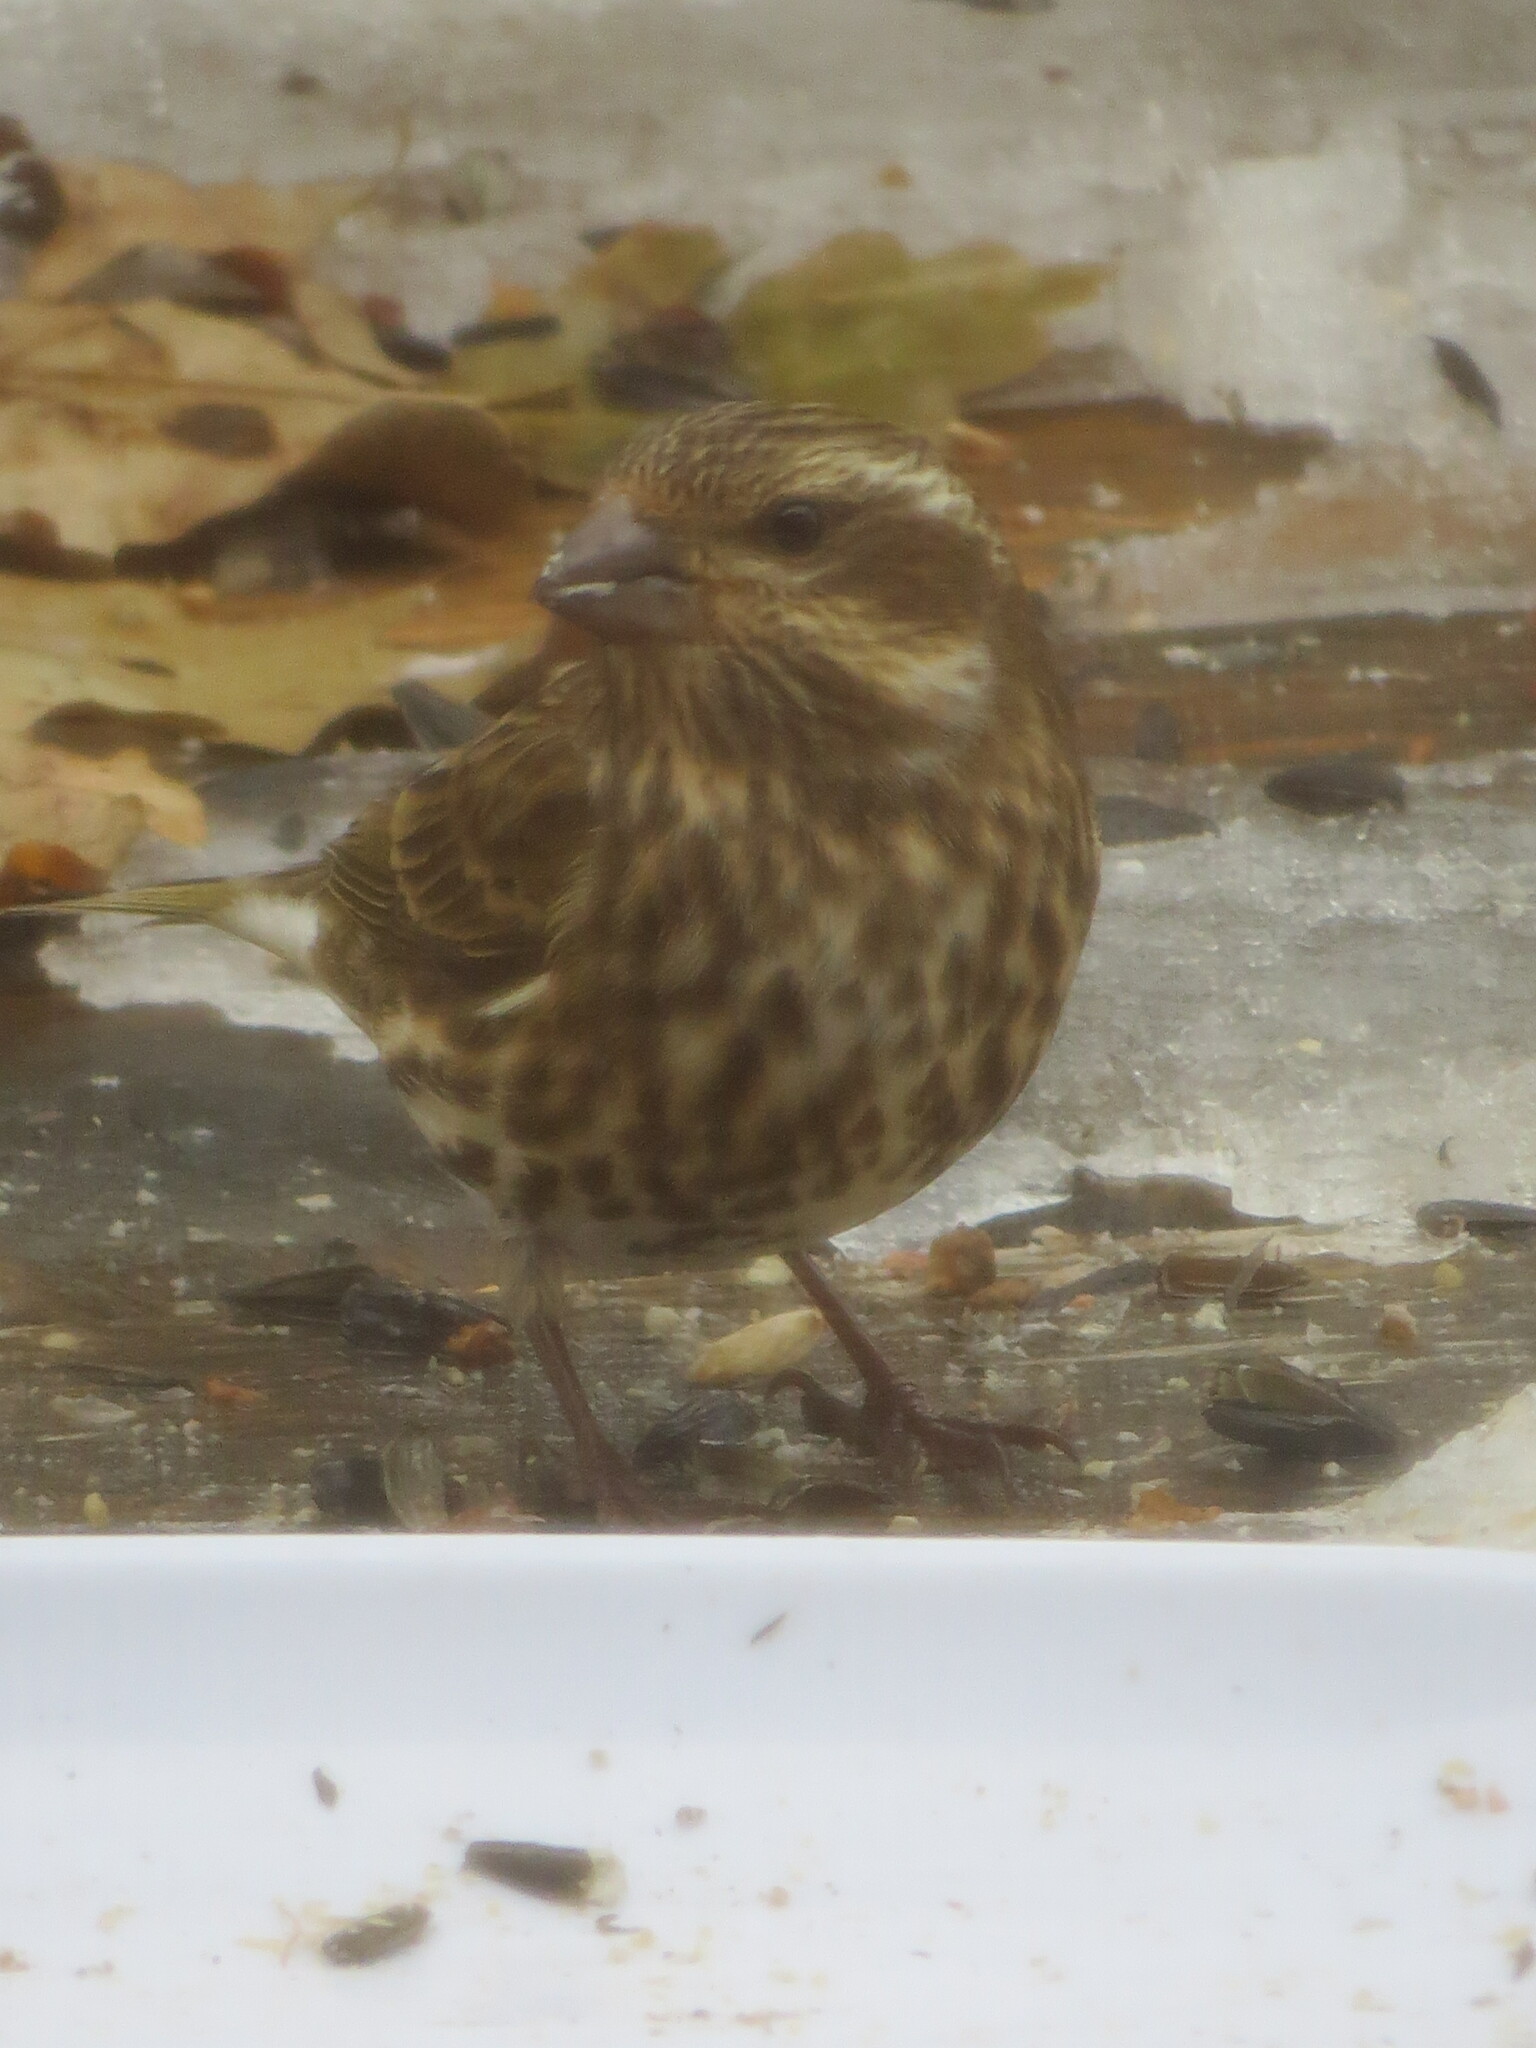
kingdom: Animalia
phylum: Chordata
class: Aves
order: Passeriformes
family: Fringillidae
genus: Haemorhous
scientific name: Haemorhous purpureus
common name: Purple finch
